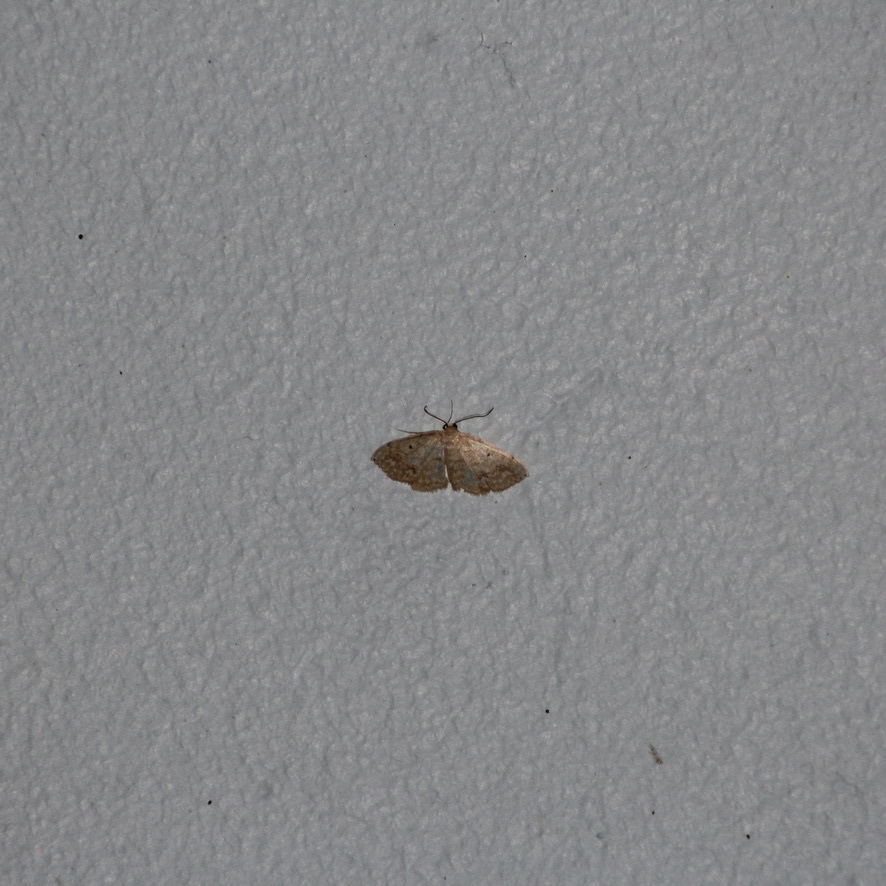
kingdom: Animalia
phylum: Arthropoda
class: Insecta
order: Lepidoptera
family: Geometridae
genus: Scopula
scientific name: Scopula apparitaria
